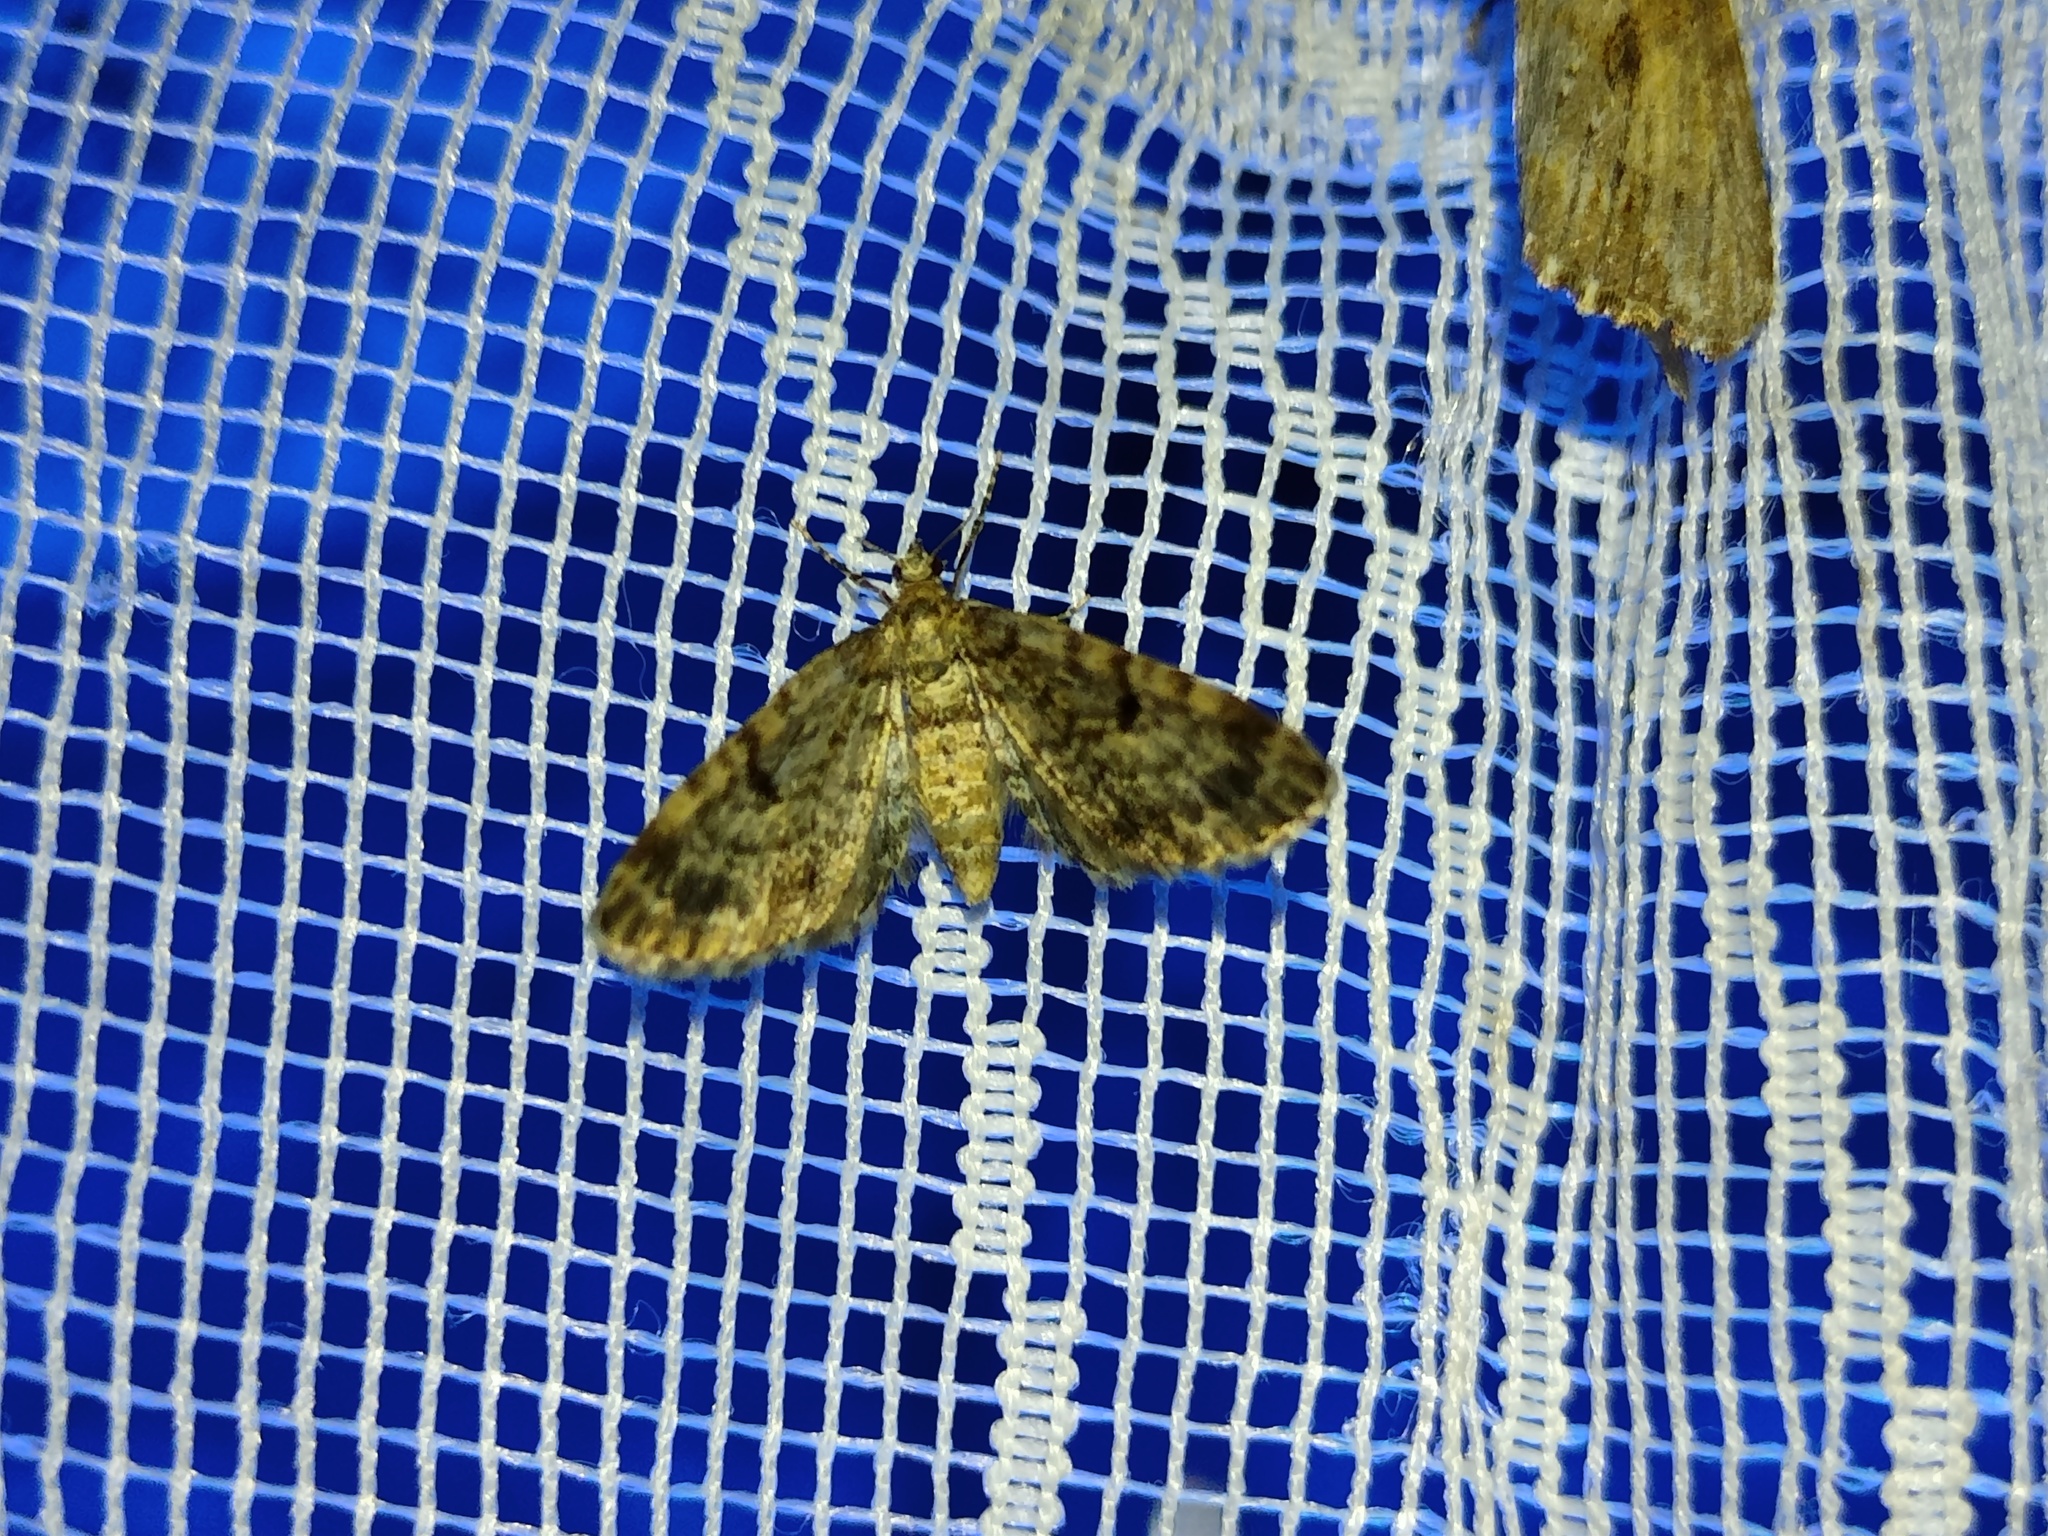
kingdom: Animalia
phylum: Arthropoda
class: Insecta
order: Lepidoptera
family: Geometridae
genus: Eupithecia
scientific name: Eupithecia tantillaria
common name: Dwarf pug
